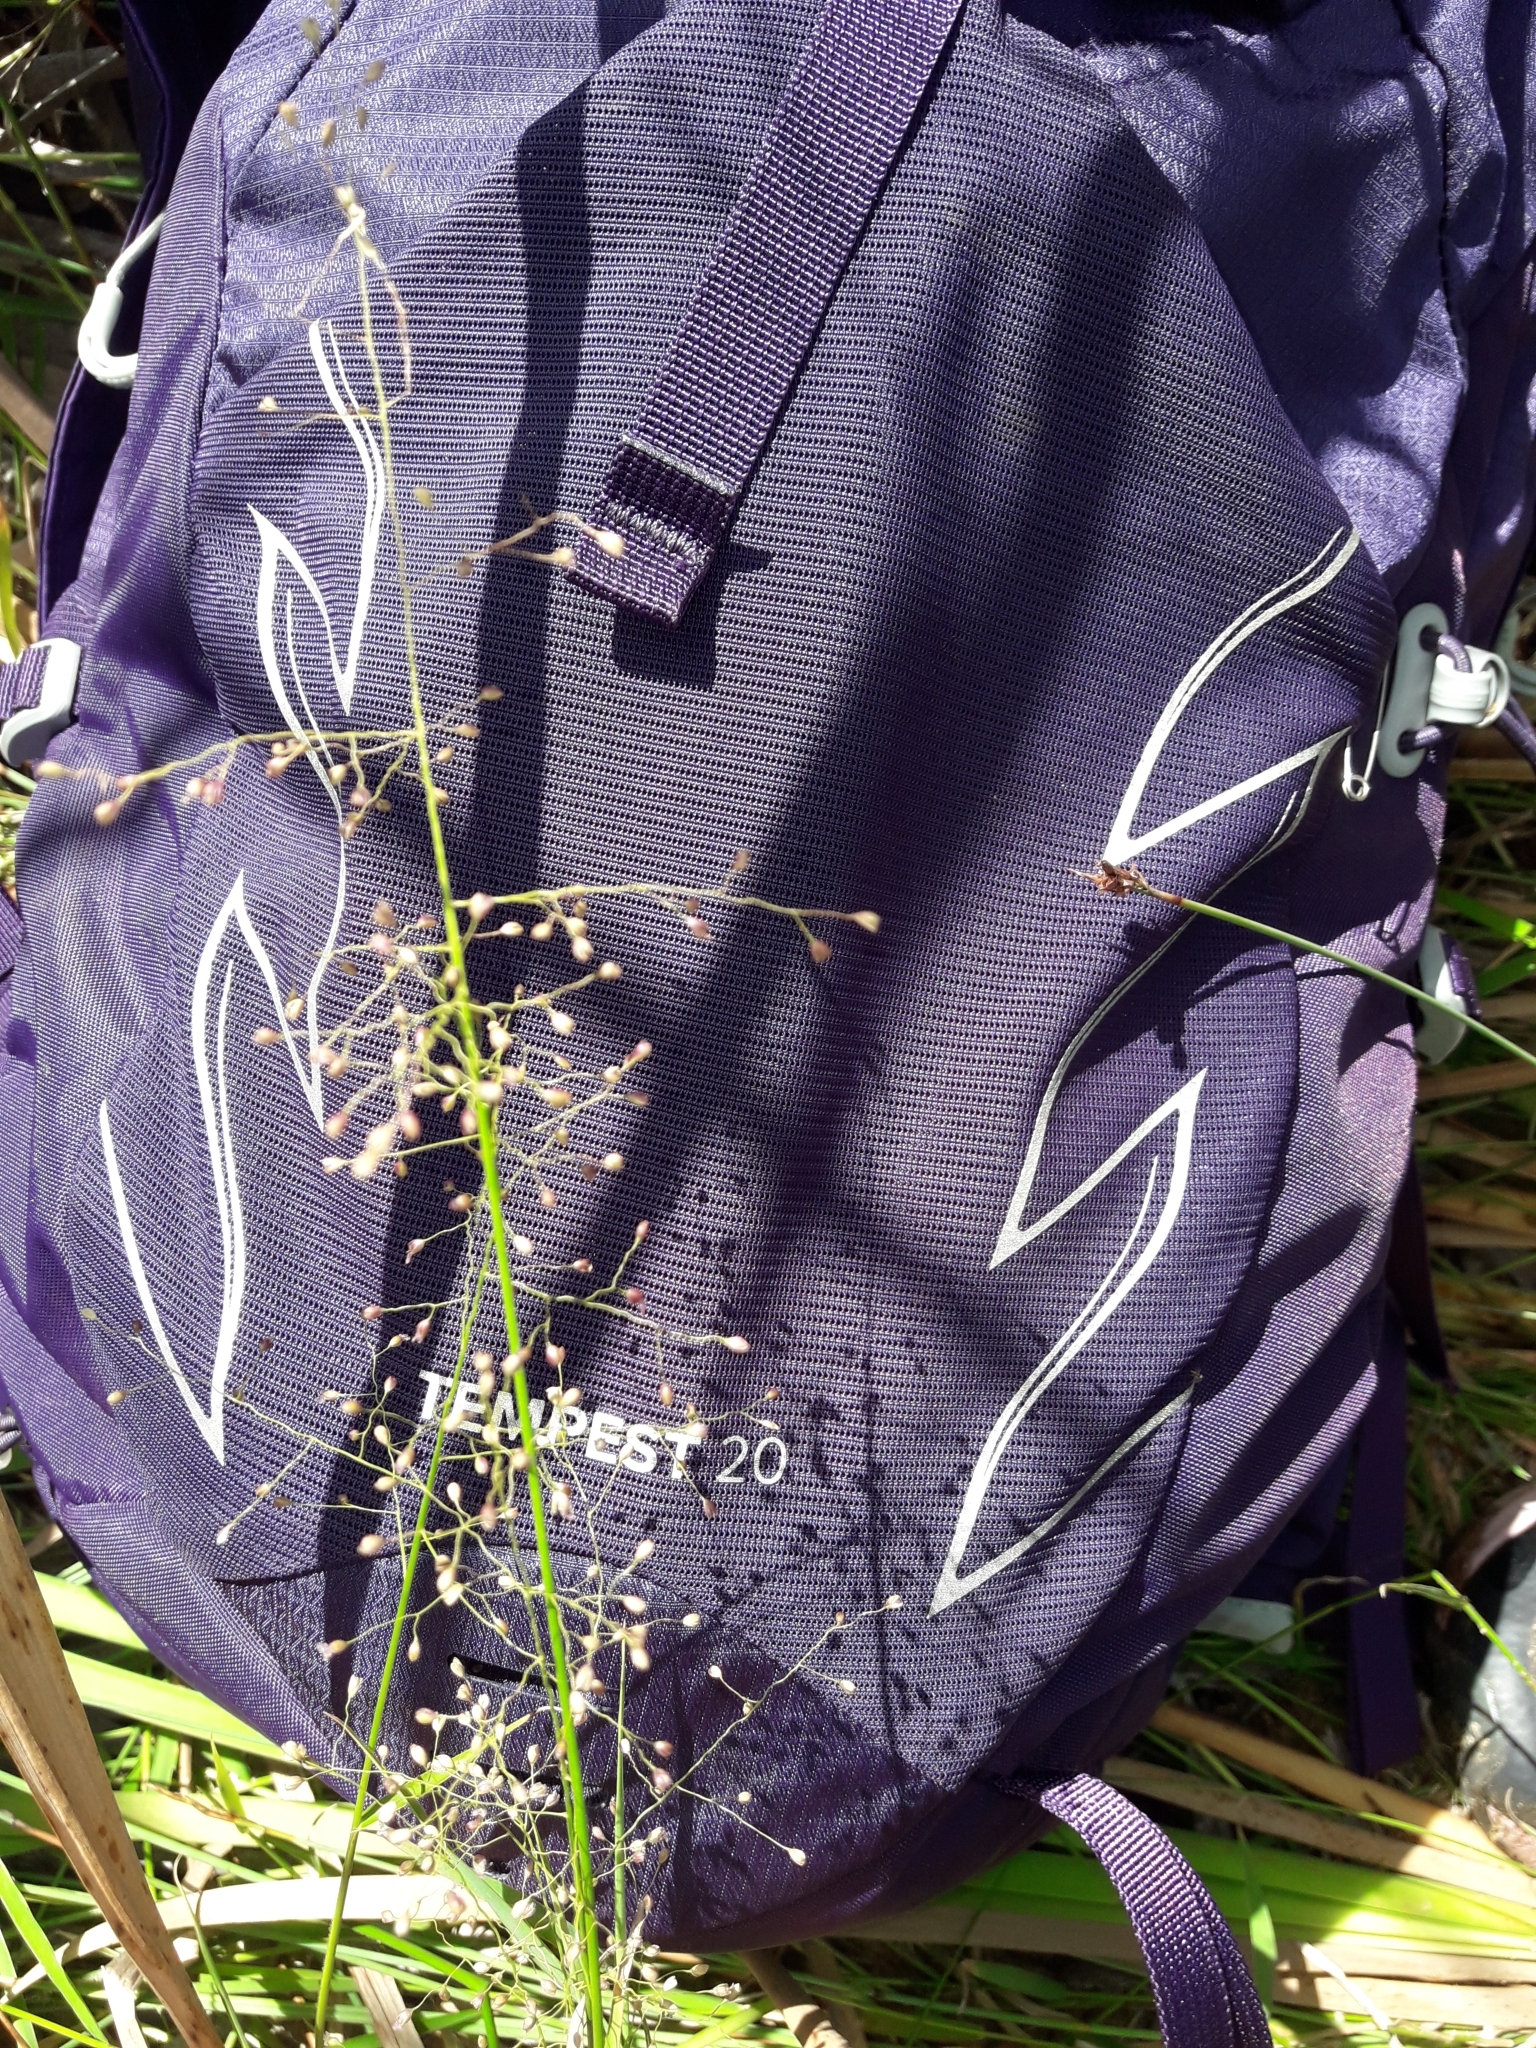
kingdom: Plantae
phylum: Tracheophyta
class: Liliopsida
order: Poales
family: Poaceae
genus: Isachne
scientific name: Isachne globosa
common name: Swamp millet
